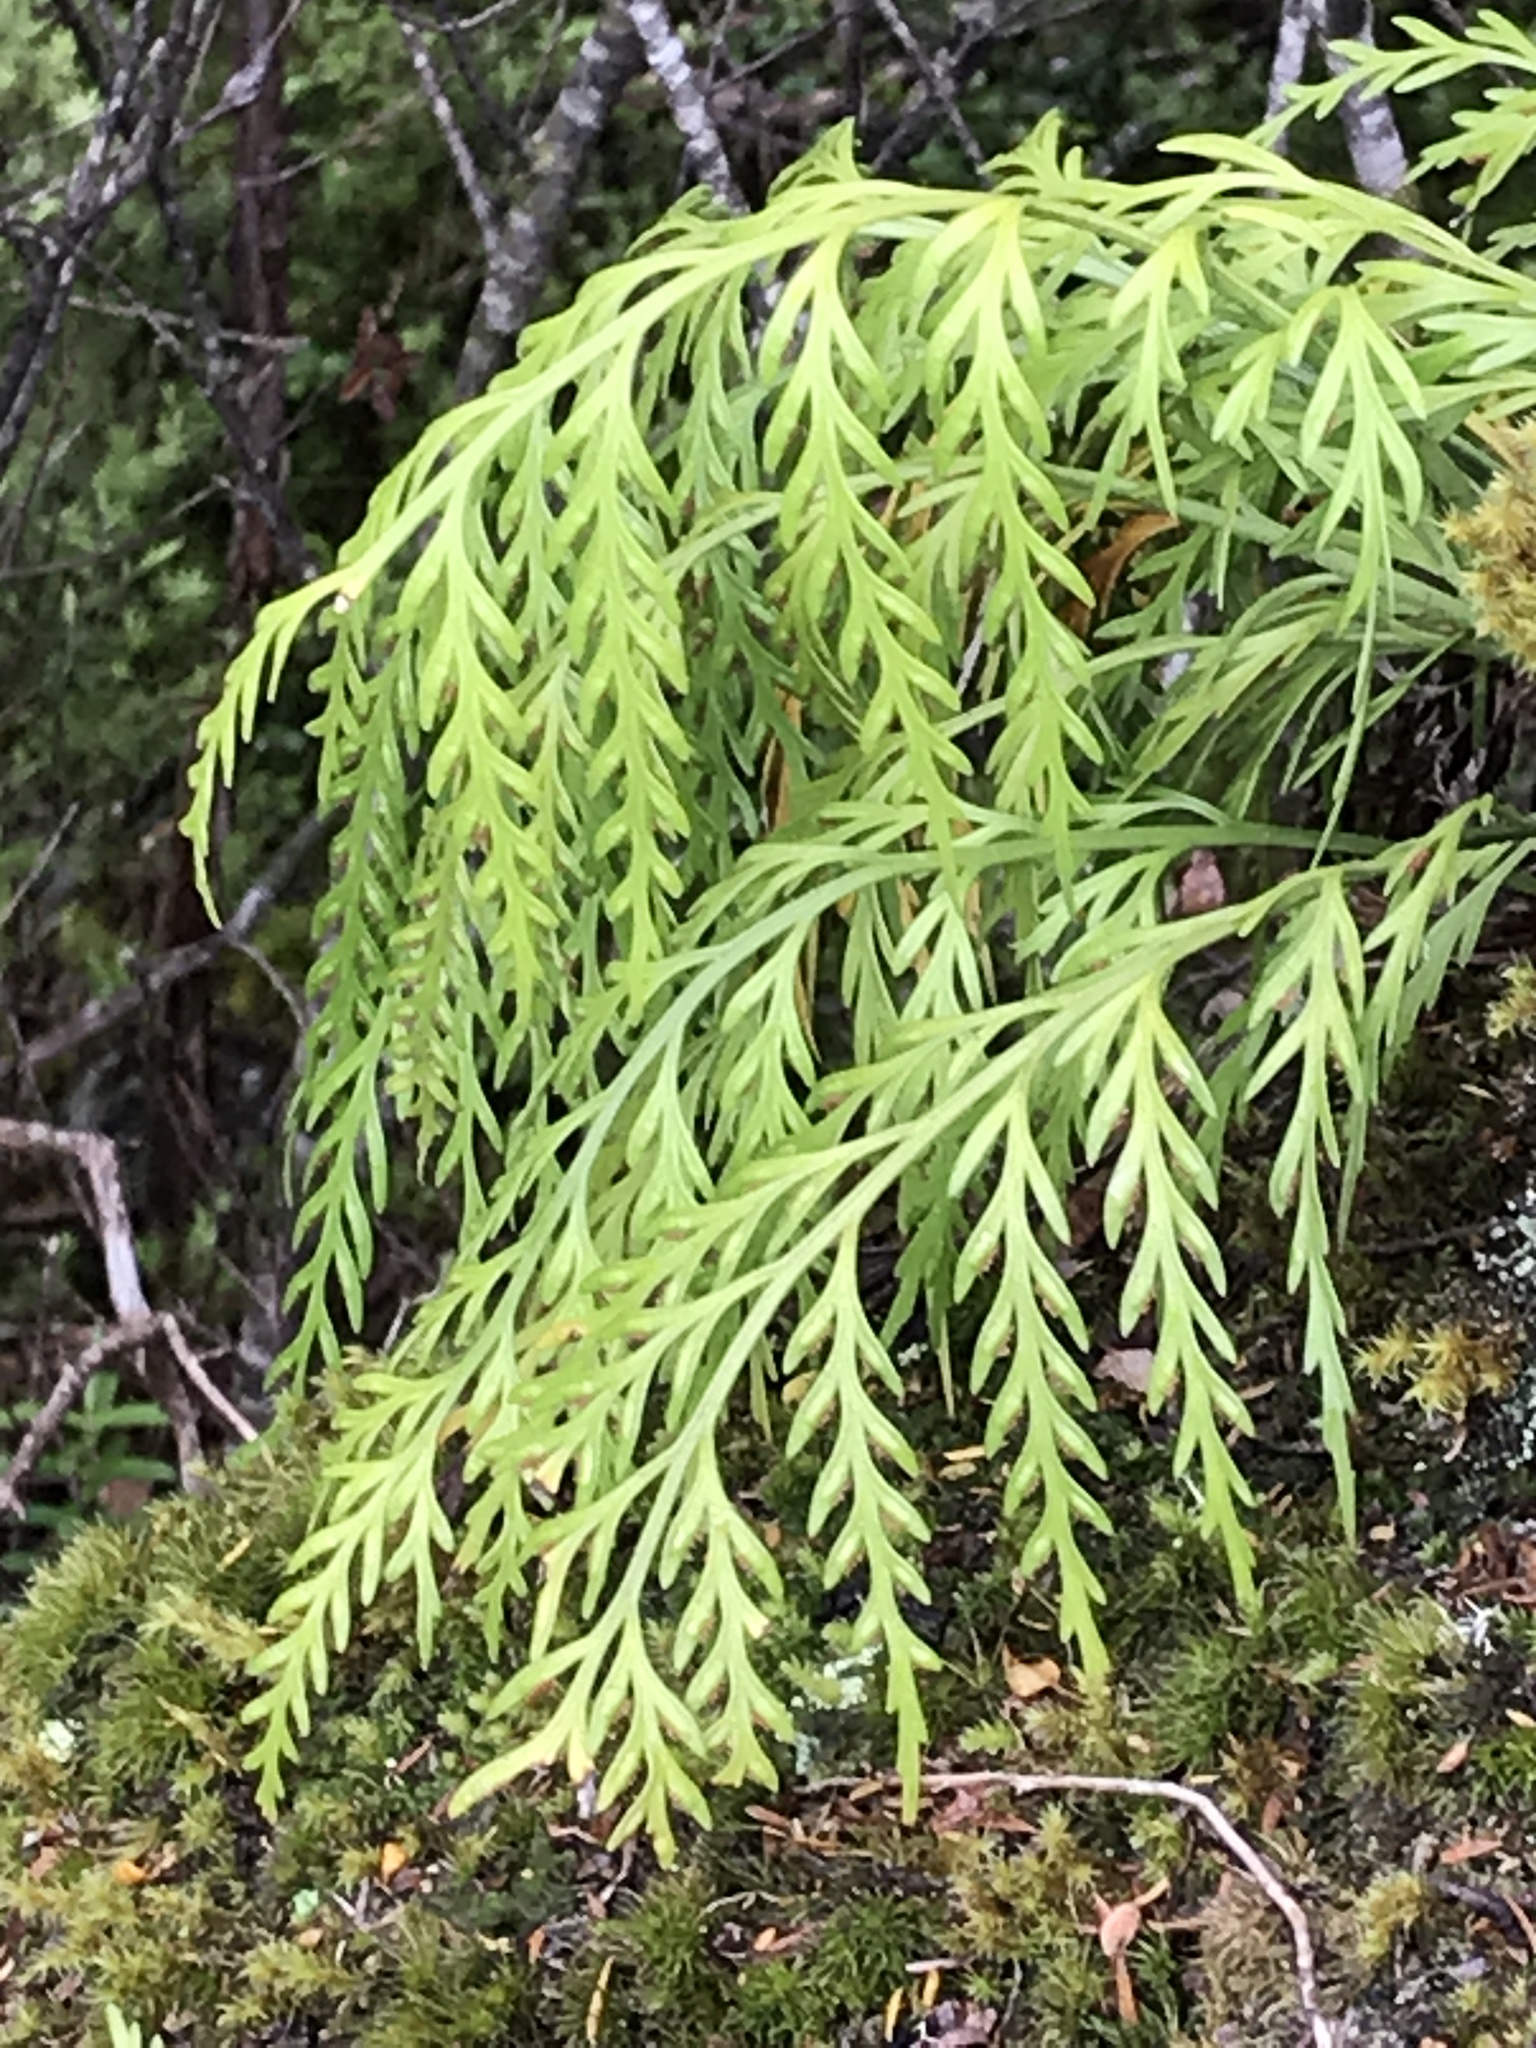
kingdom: Plantae
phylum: Tracheophyta
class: Polypodiopsida
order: Polypodiales
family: Aspleniaceae
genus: Asplenium
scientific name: Asplenium flaccidum
